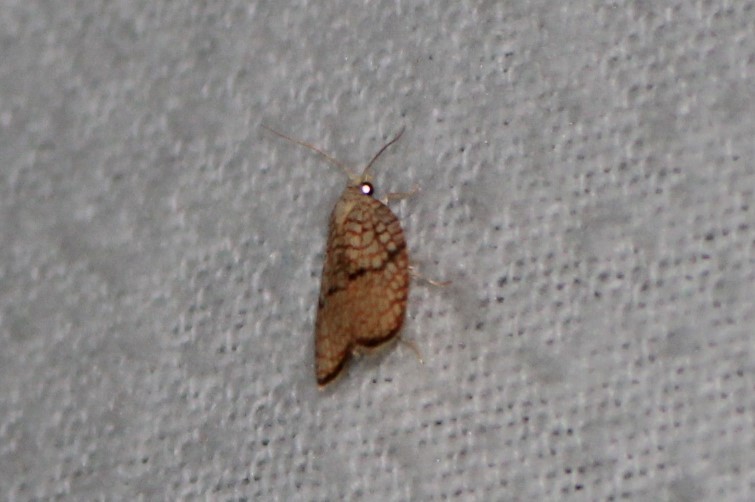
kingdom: Animalia
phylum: Arthropoda
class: Insecta
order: Lepidoptera
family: Tortricidae
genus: Acleris
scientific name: Acleris forsskaleana
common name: Maple button
